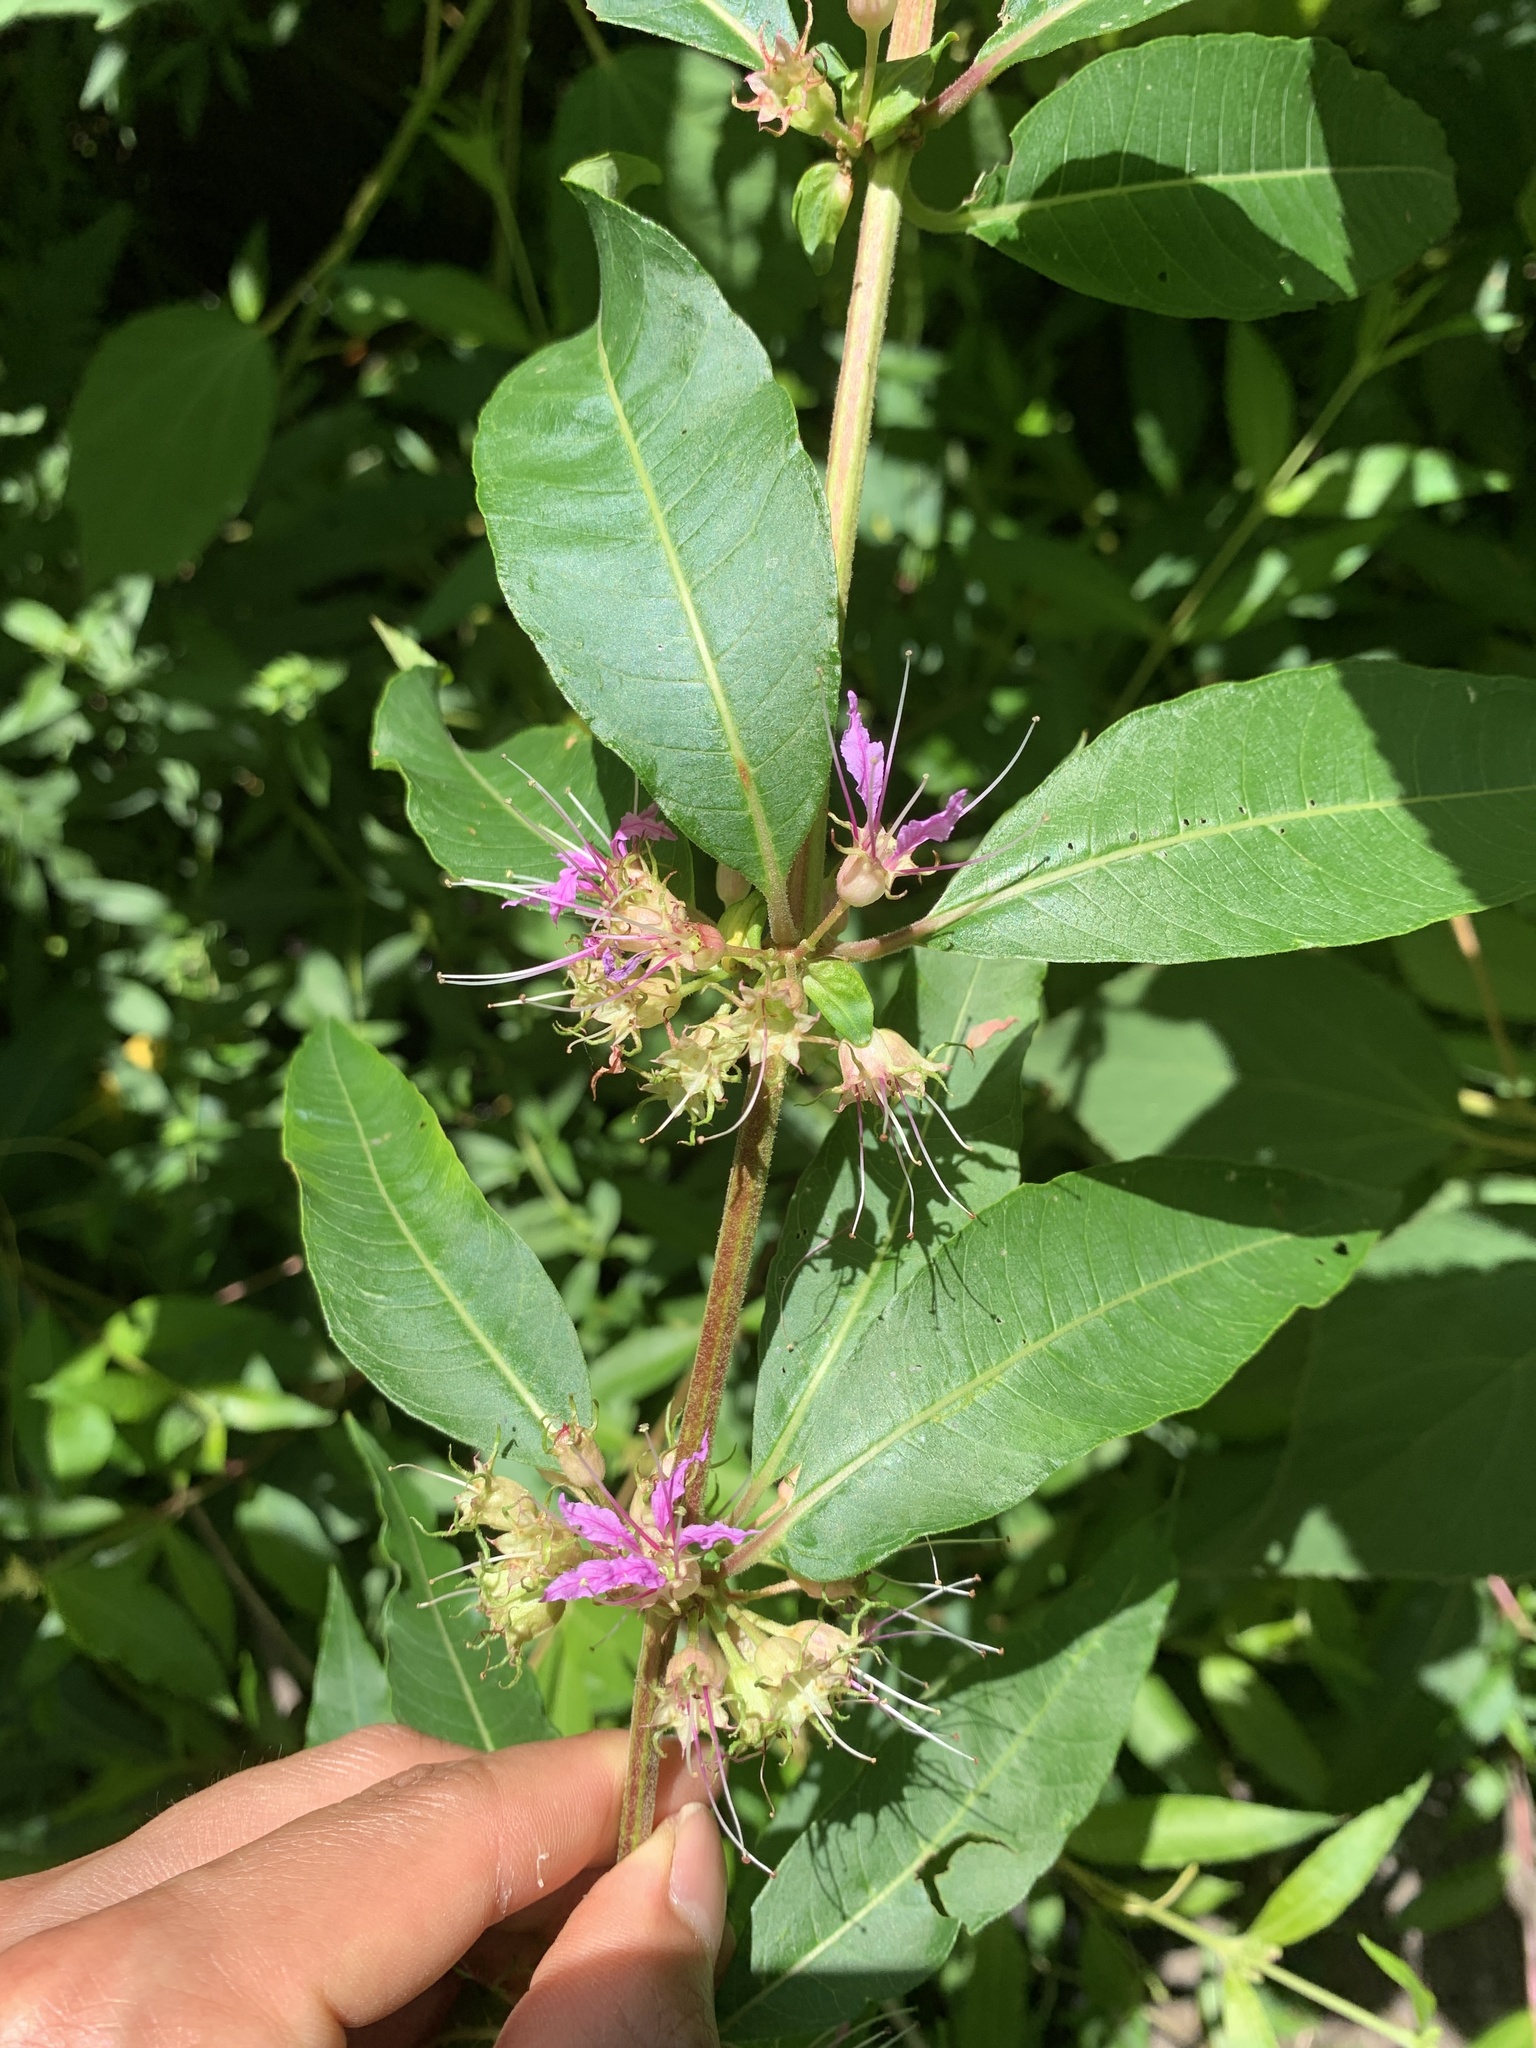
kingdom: Plantae
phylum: Tracheophyta
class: Magnoliopsida
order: Myrtales
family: Lythraceae
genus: Decodon
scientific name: Decodon verticillatus
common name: Hairy swamp loosestrife
